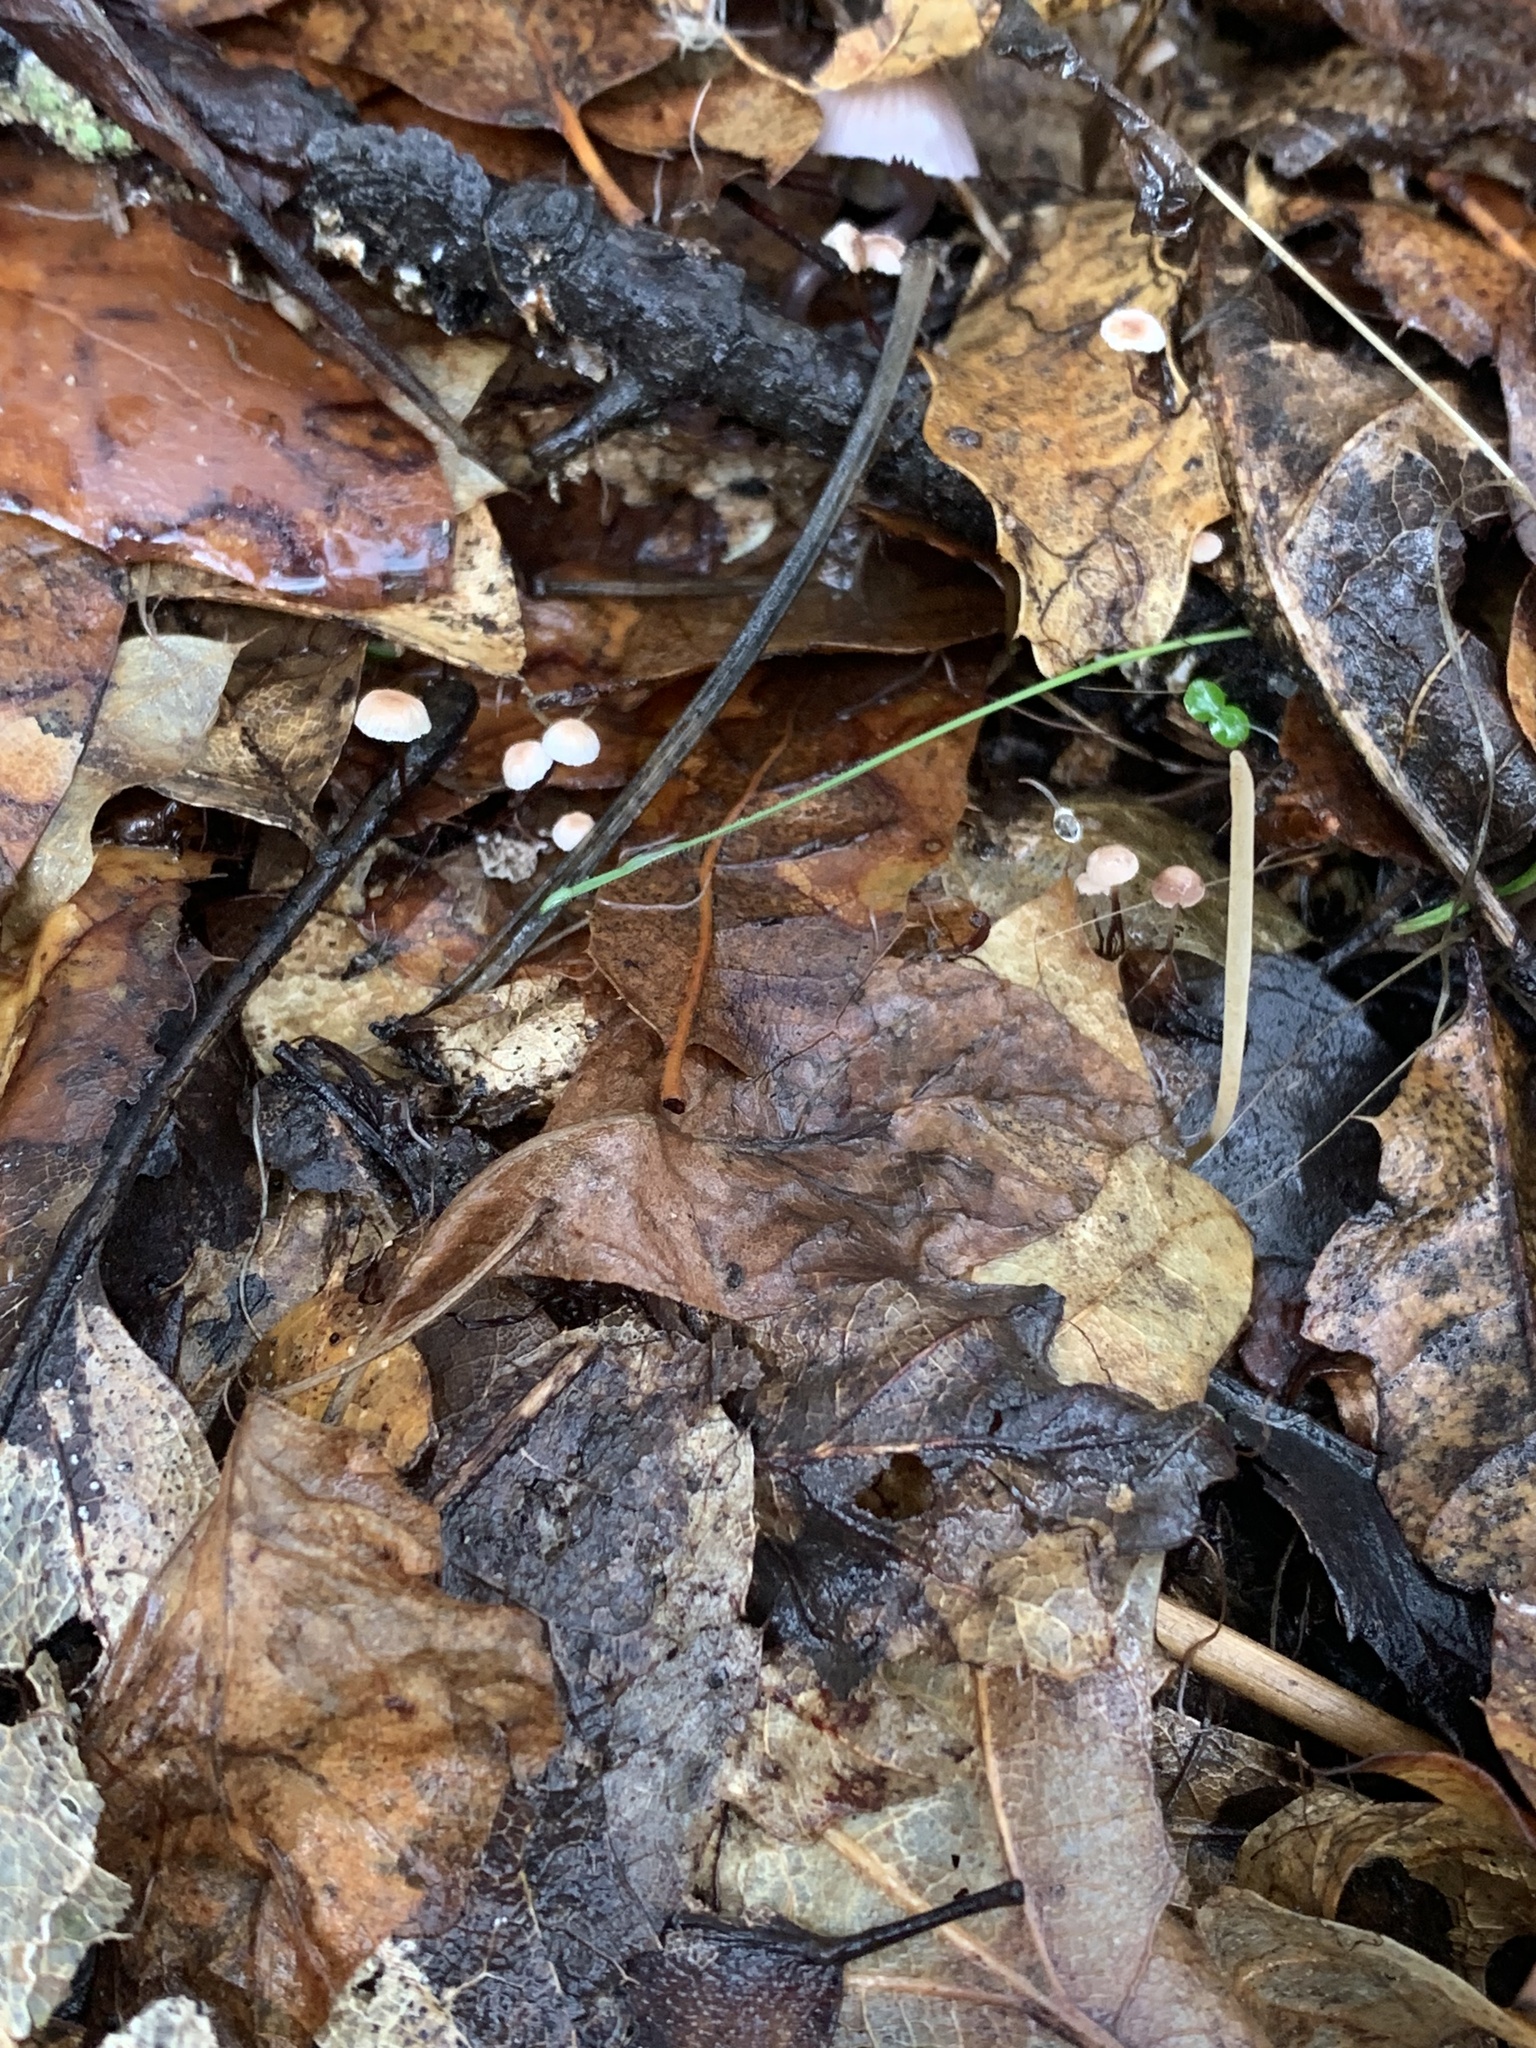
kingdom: Fungi
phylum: Basidiomycota
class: Agaricomycetes
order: Agaricales
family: Omphalotaceae
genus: Collybiopsis
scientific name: Collybiopsis quercophila
